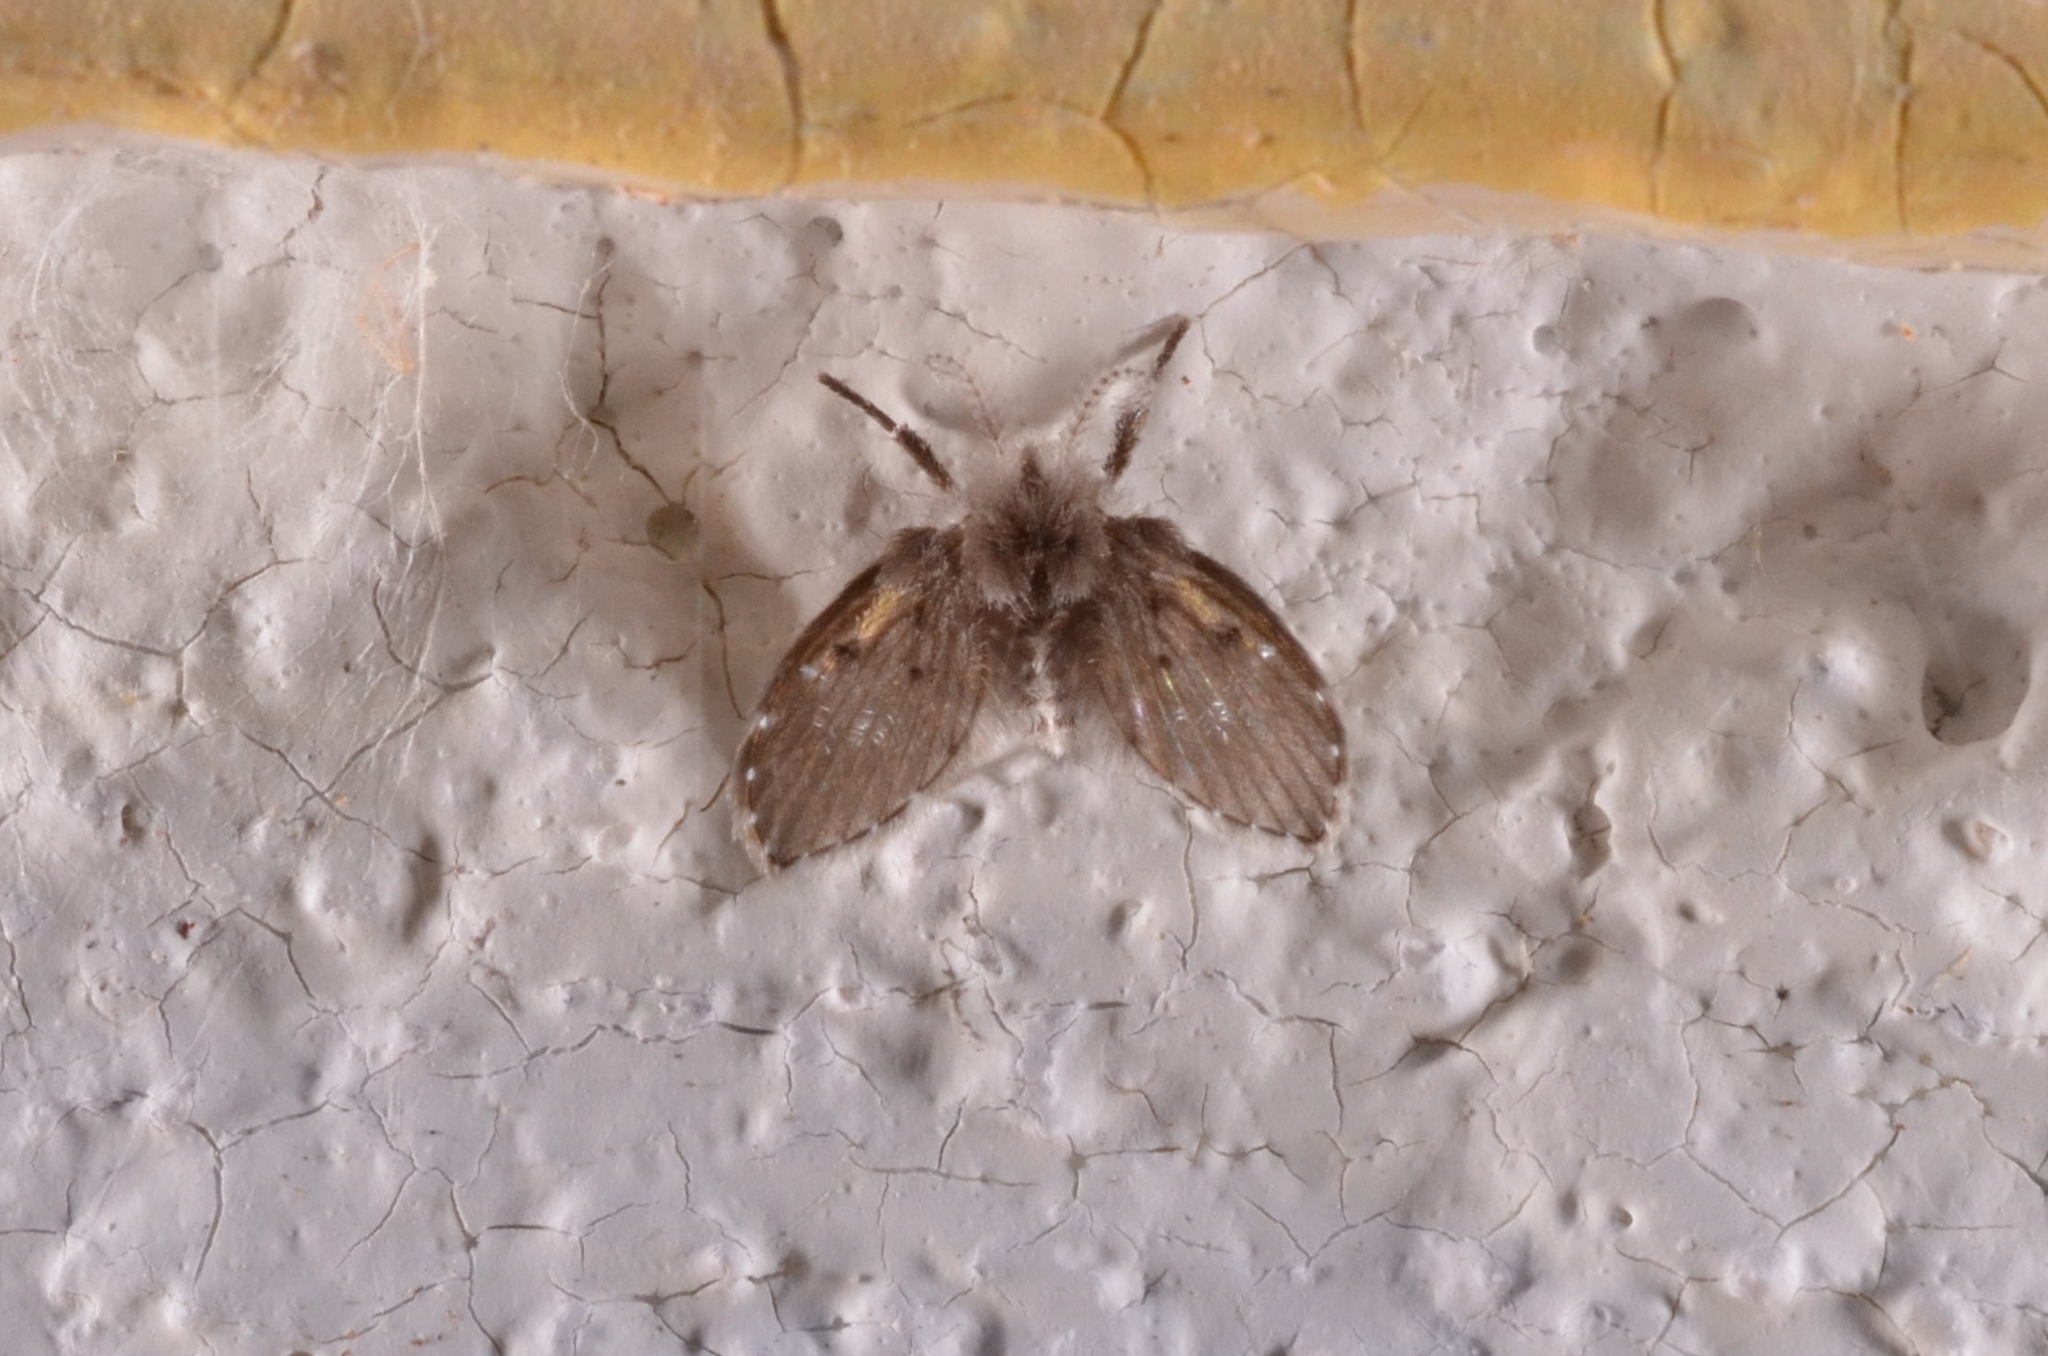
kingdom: Animalia
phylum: Arthropoda
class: Insecta
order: Diptera
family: Psychodidae
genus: Clogmia
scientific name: Clogmia albipunctatus
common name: White-spotted moth fly
